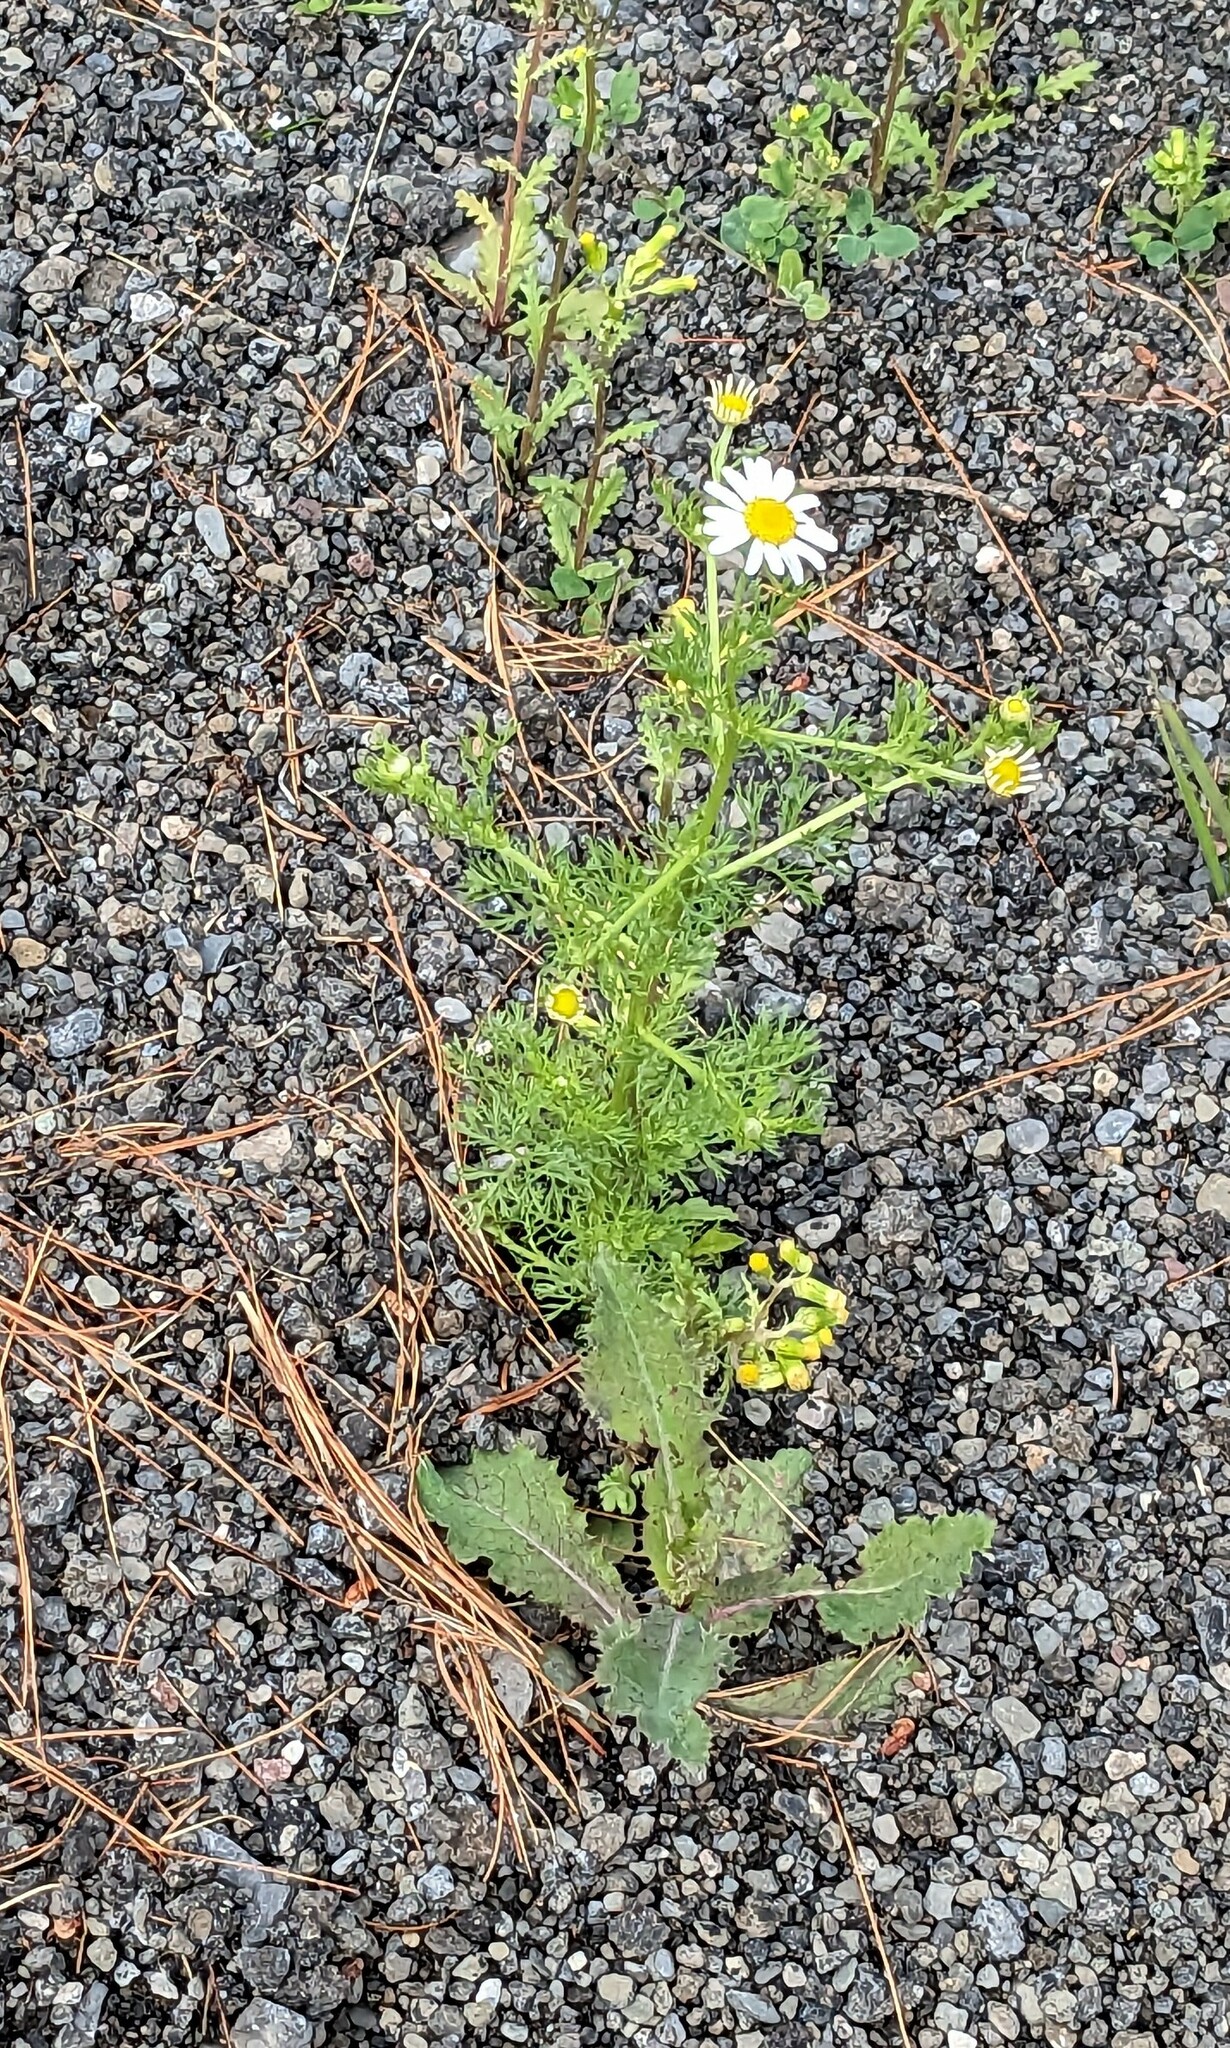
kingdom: Plantae
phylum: Tracheophyta
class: Magnoliopsida
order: Asterales
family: Asteraceae
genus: Tripleurospermum
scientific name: Tripleurospermum inodorum
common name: Scentless mayweed
